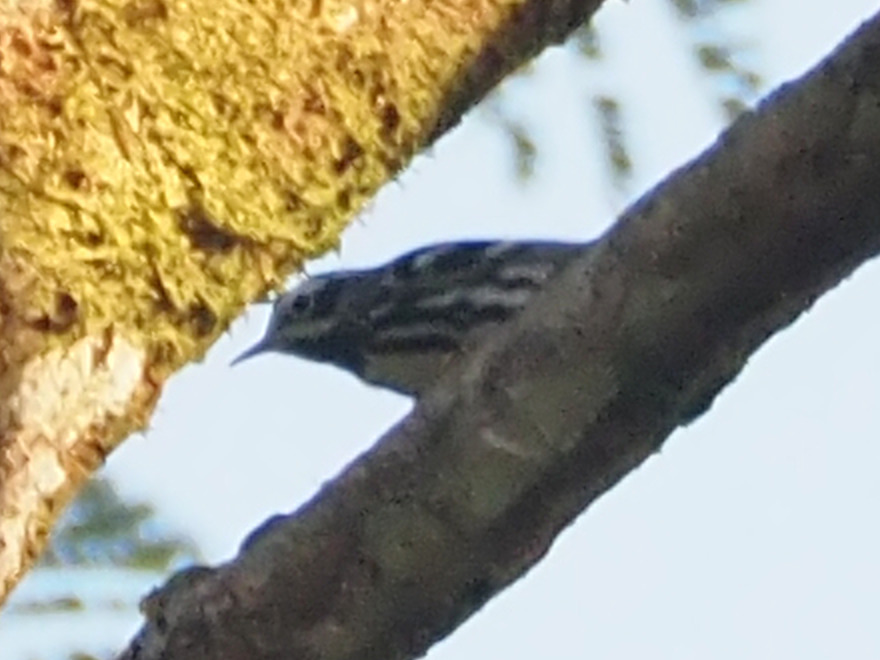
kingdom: Animalia
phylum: Chordata
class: Aves
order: Passeriformes
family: Parulidae
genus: Mniotilta
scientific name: Mniotilta varia
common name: Black-and-white warbler
